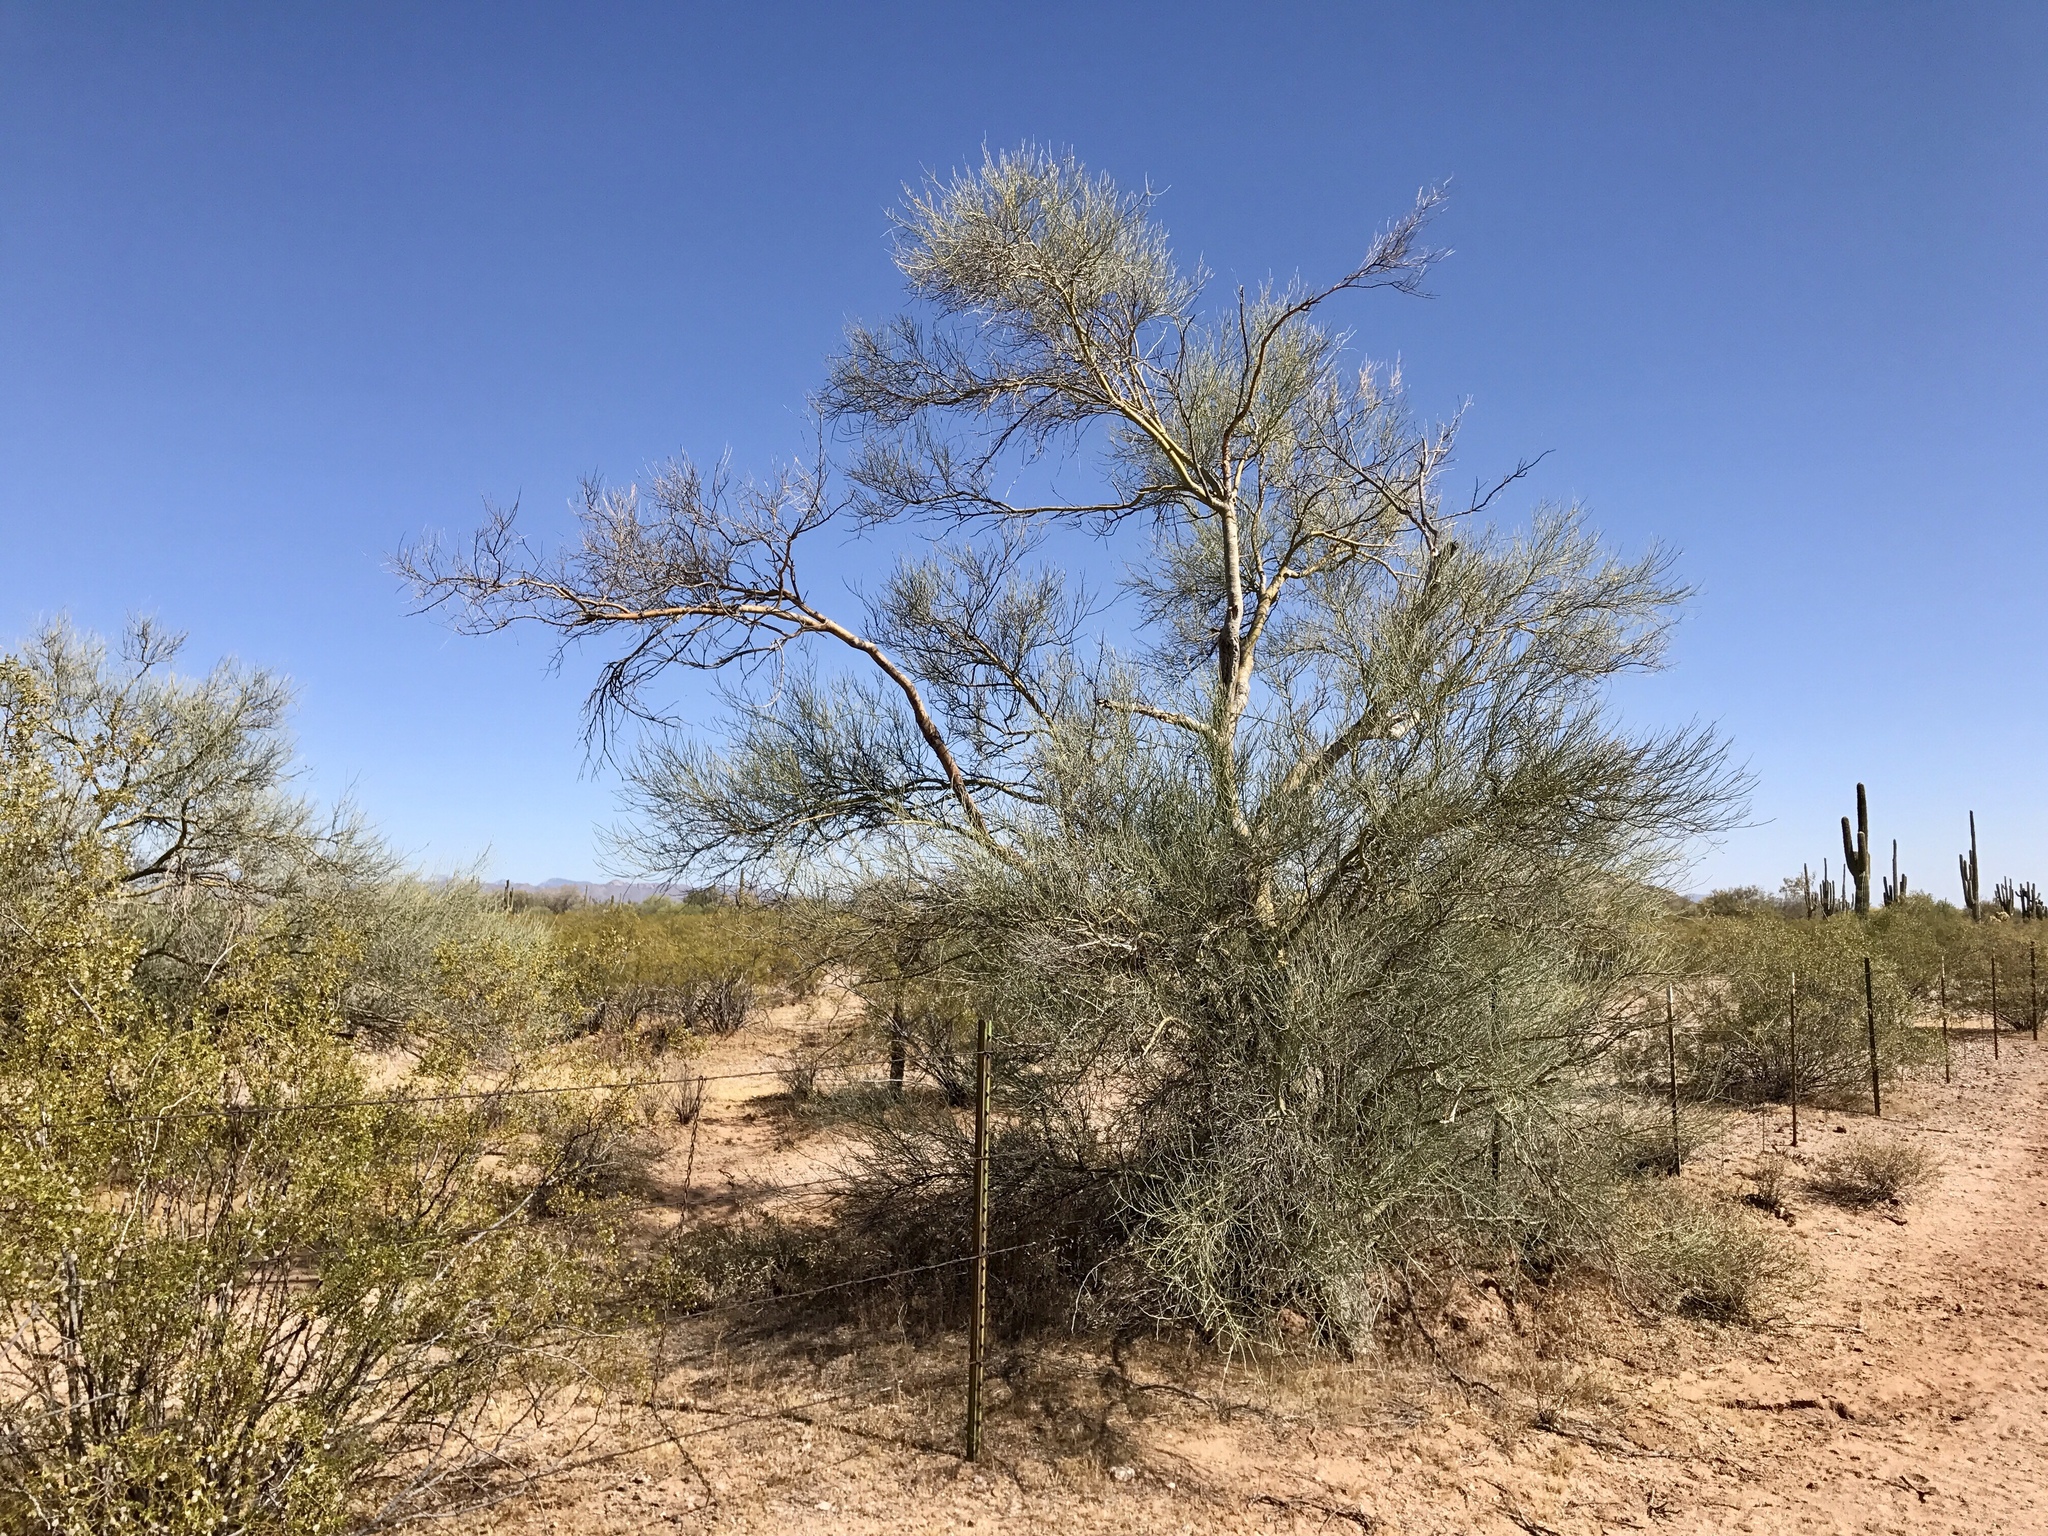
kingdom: Plantae
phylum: Tracheophyta
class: Magnoliopsida
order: Fabales
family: Fabaceae
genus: Parkinsonia
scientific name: Parkinsonia florida
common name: Blue paloverde
